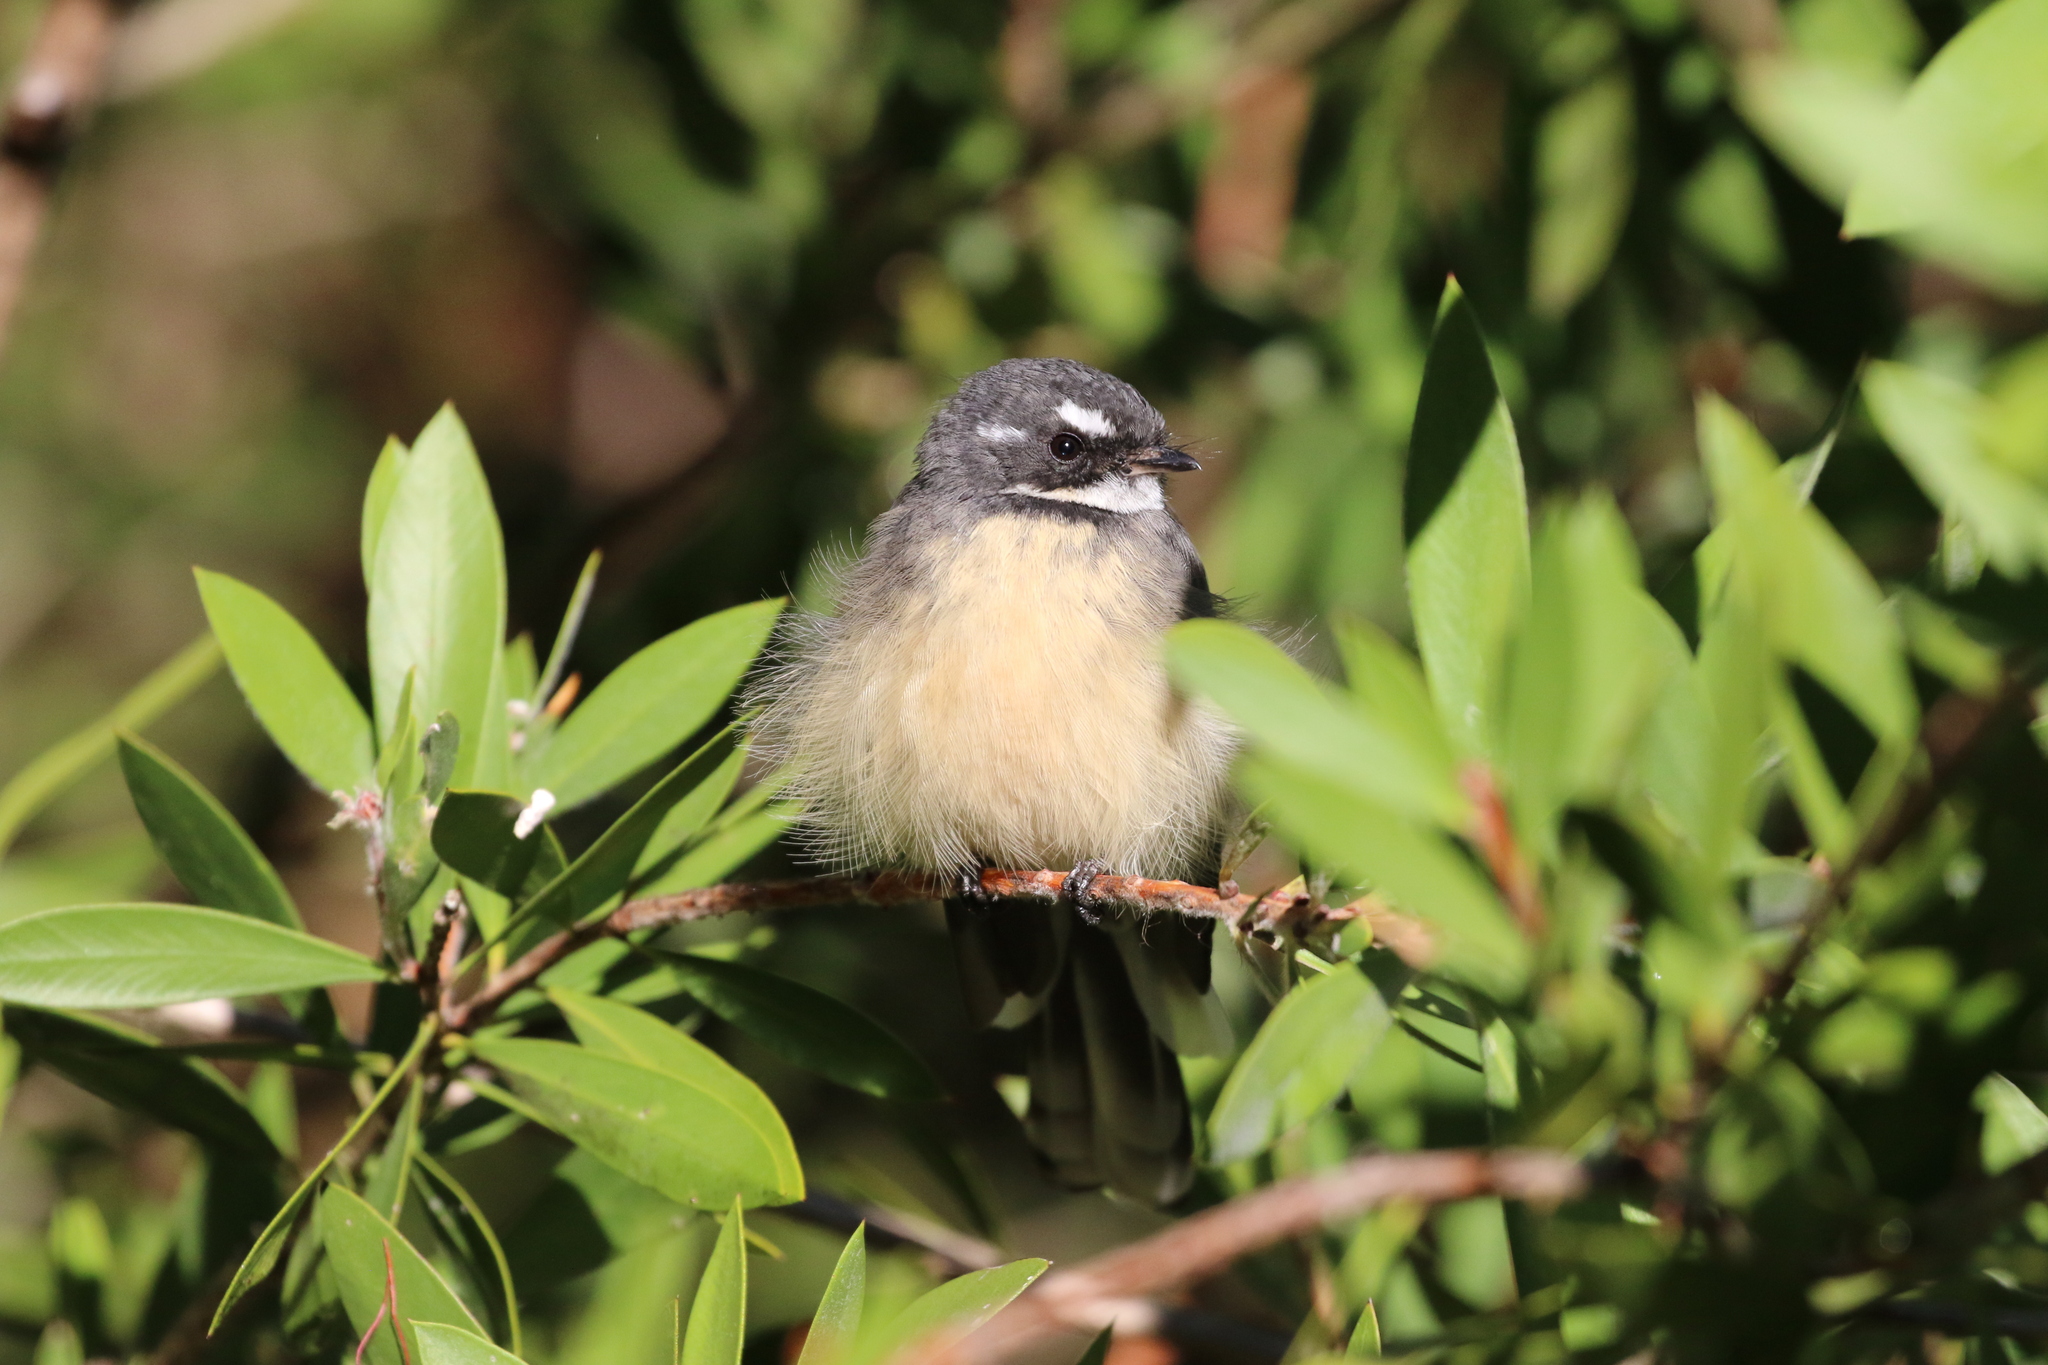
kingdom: Animalia
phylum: Chordata
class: Aves
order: Passeriformes
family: Rhipiduridae
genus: Rhipidura
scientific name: Rhipidura albiscapa
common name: Grey fantail
